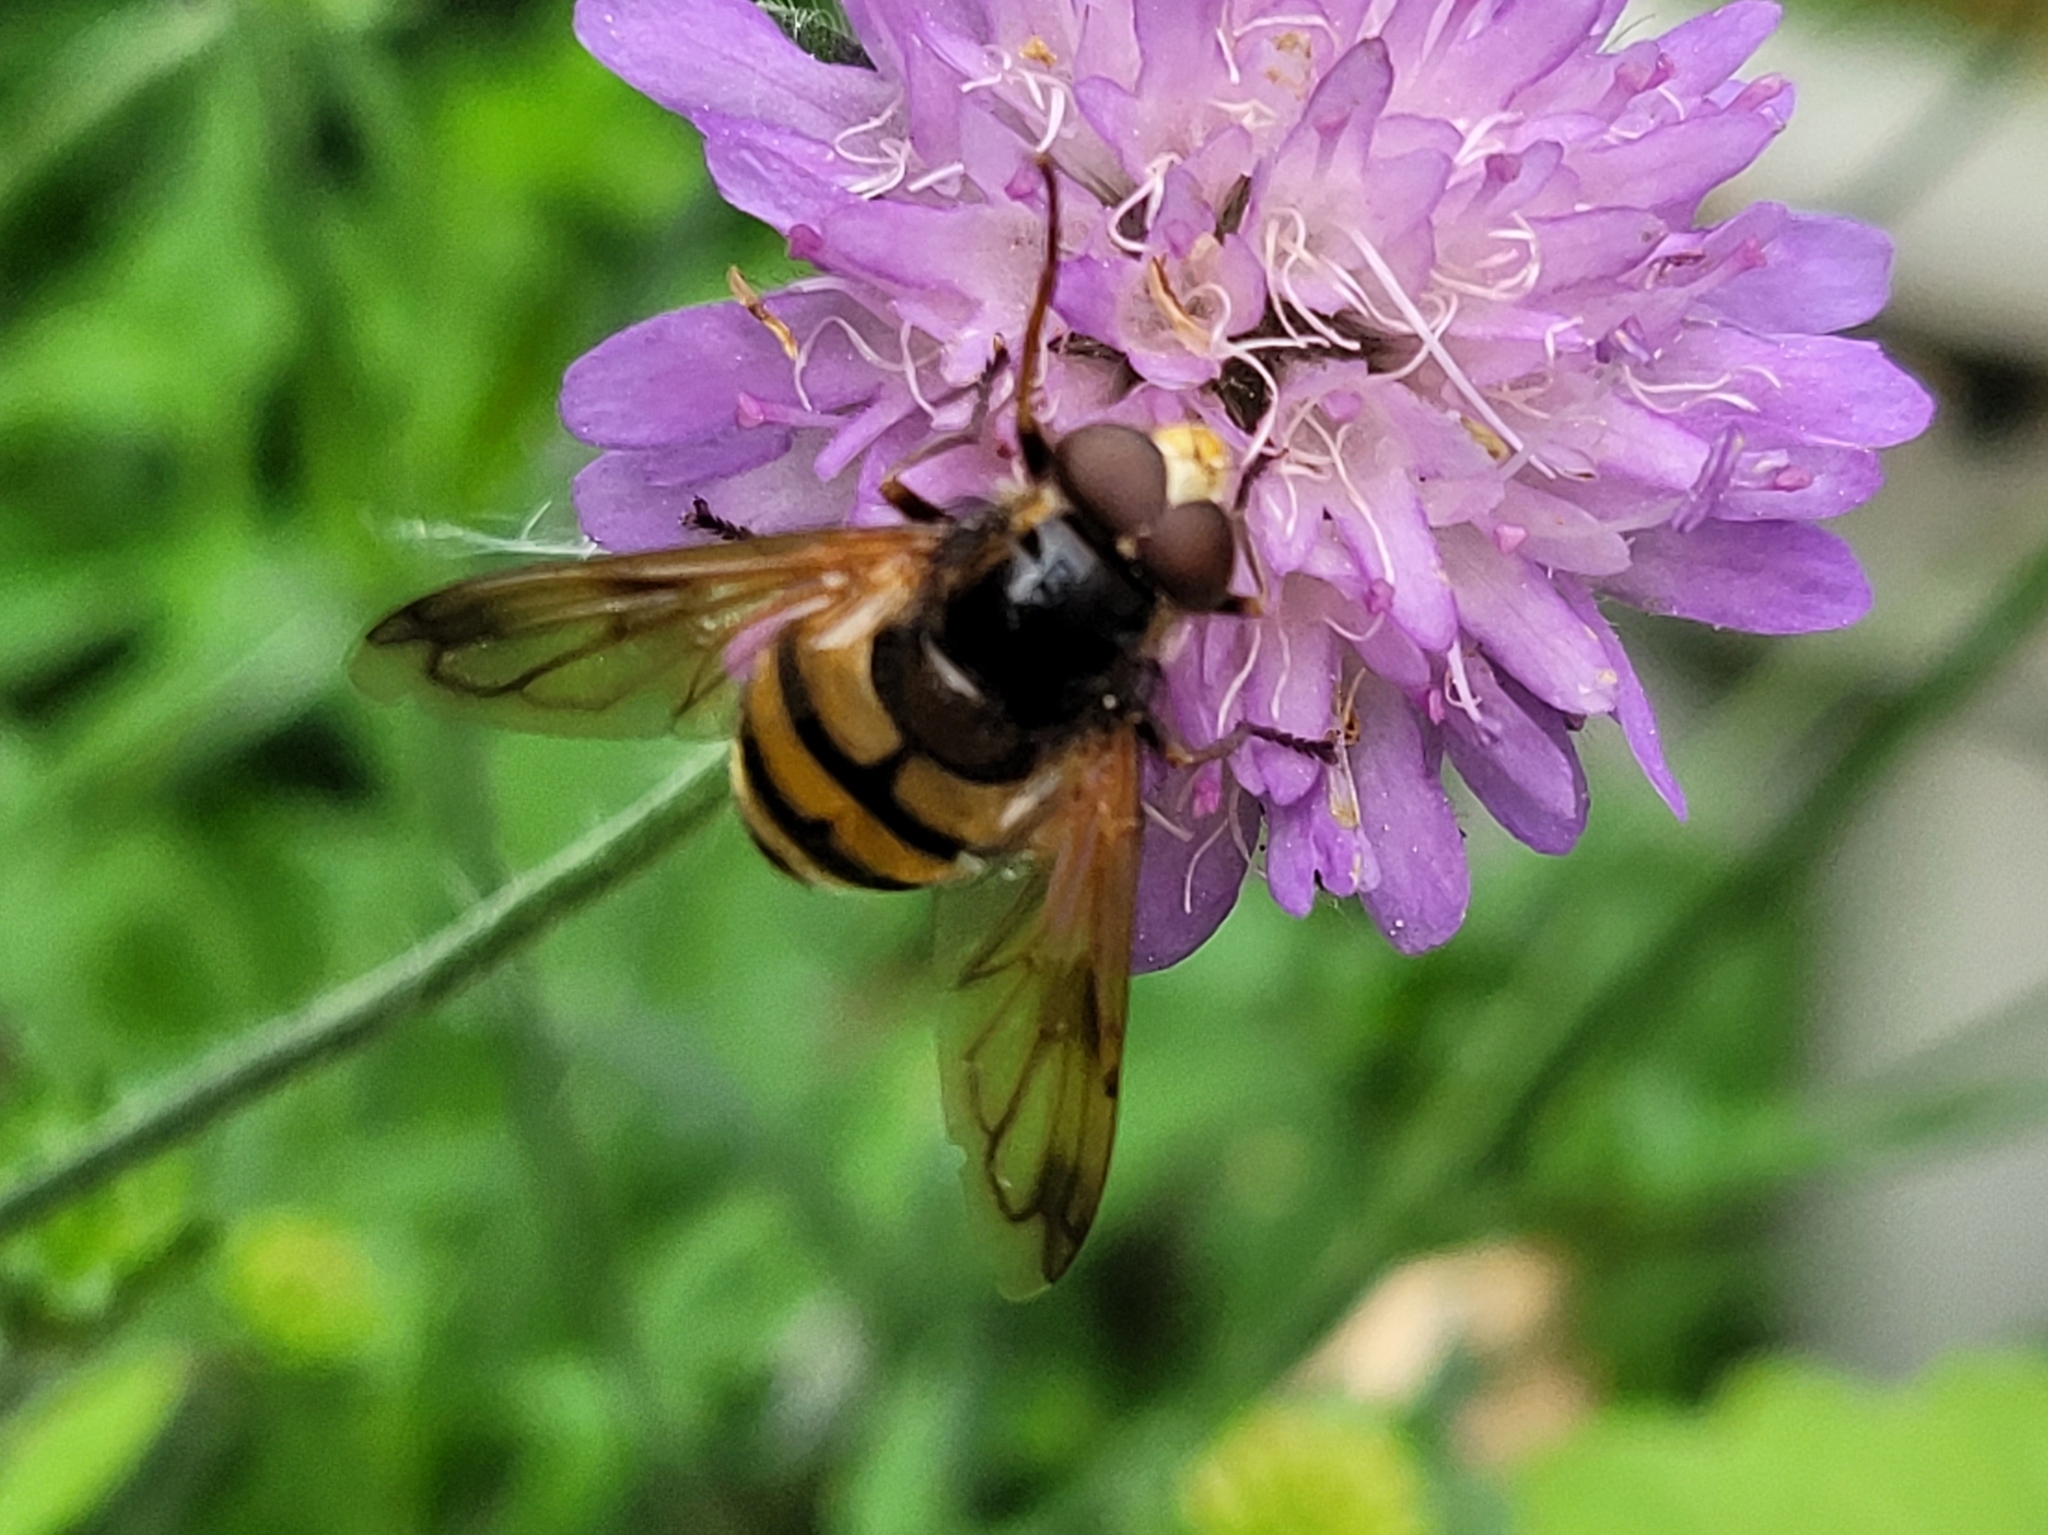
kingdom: Animalia
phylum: Arthropoda
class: Insecta
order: Diptera
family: Syrphidae
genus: Volucella
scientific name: Volucella inanis
